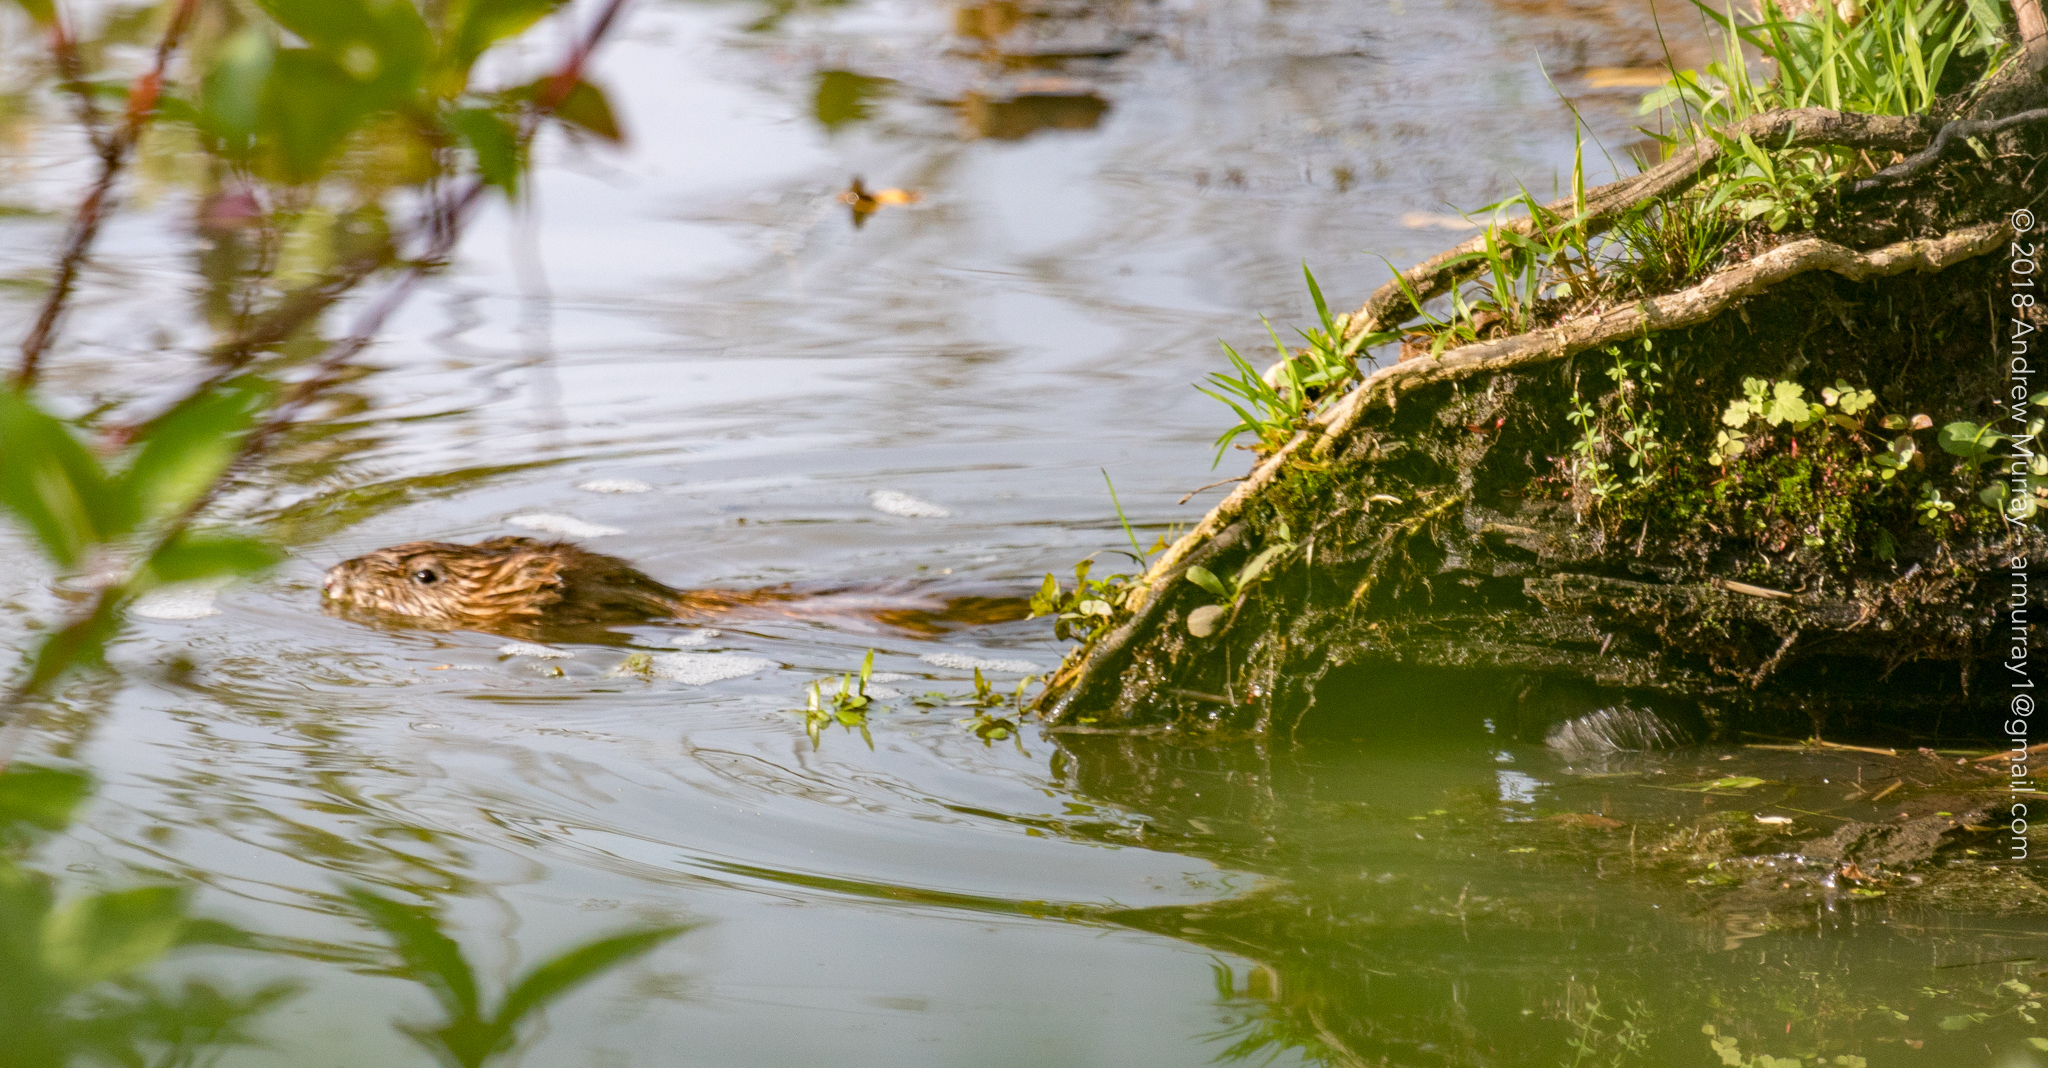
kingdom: Animalia
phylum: Chordata
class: Mammalia
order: Rodentia
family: Cricetidae
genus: Ondatra
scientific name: Ondatra zibethicus
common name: Muskrat
